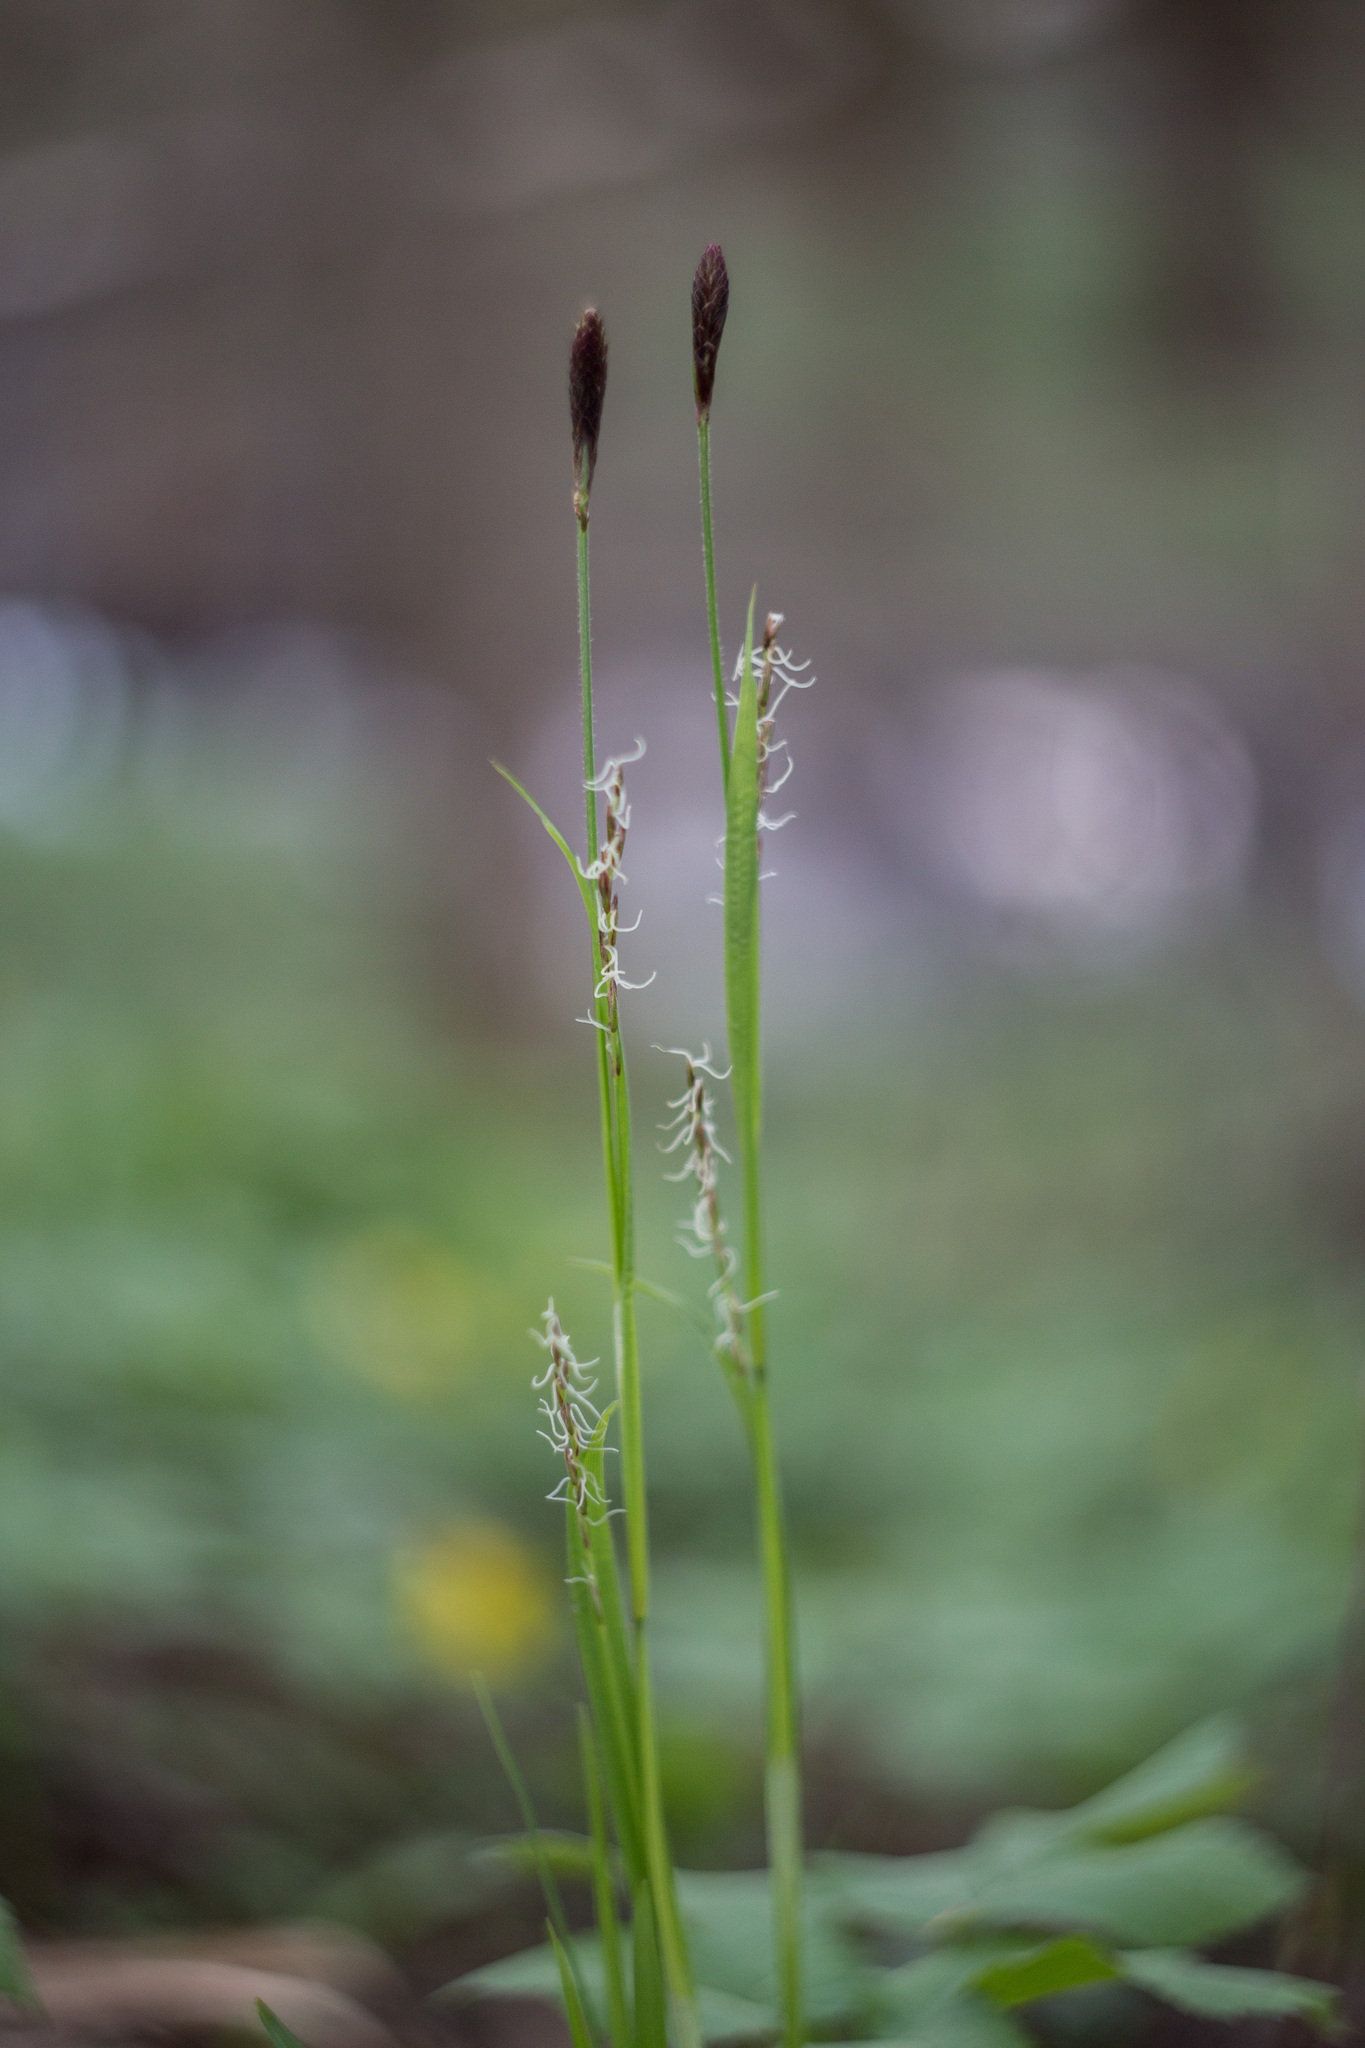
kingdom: Plantae
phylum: Tracheophyta
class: Liliopsida
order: Poales
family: Cyperaceae
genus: Carex
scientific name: Carex pilosa
